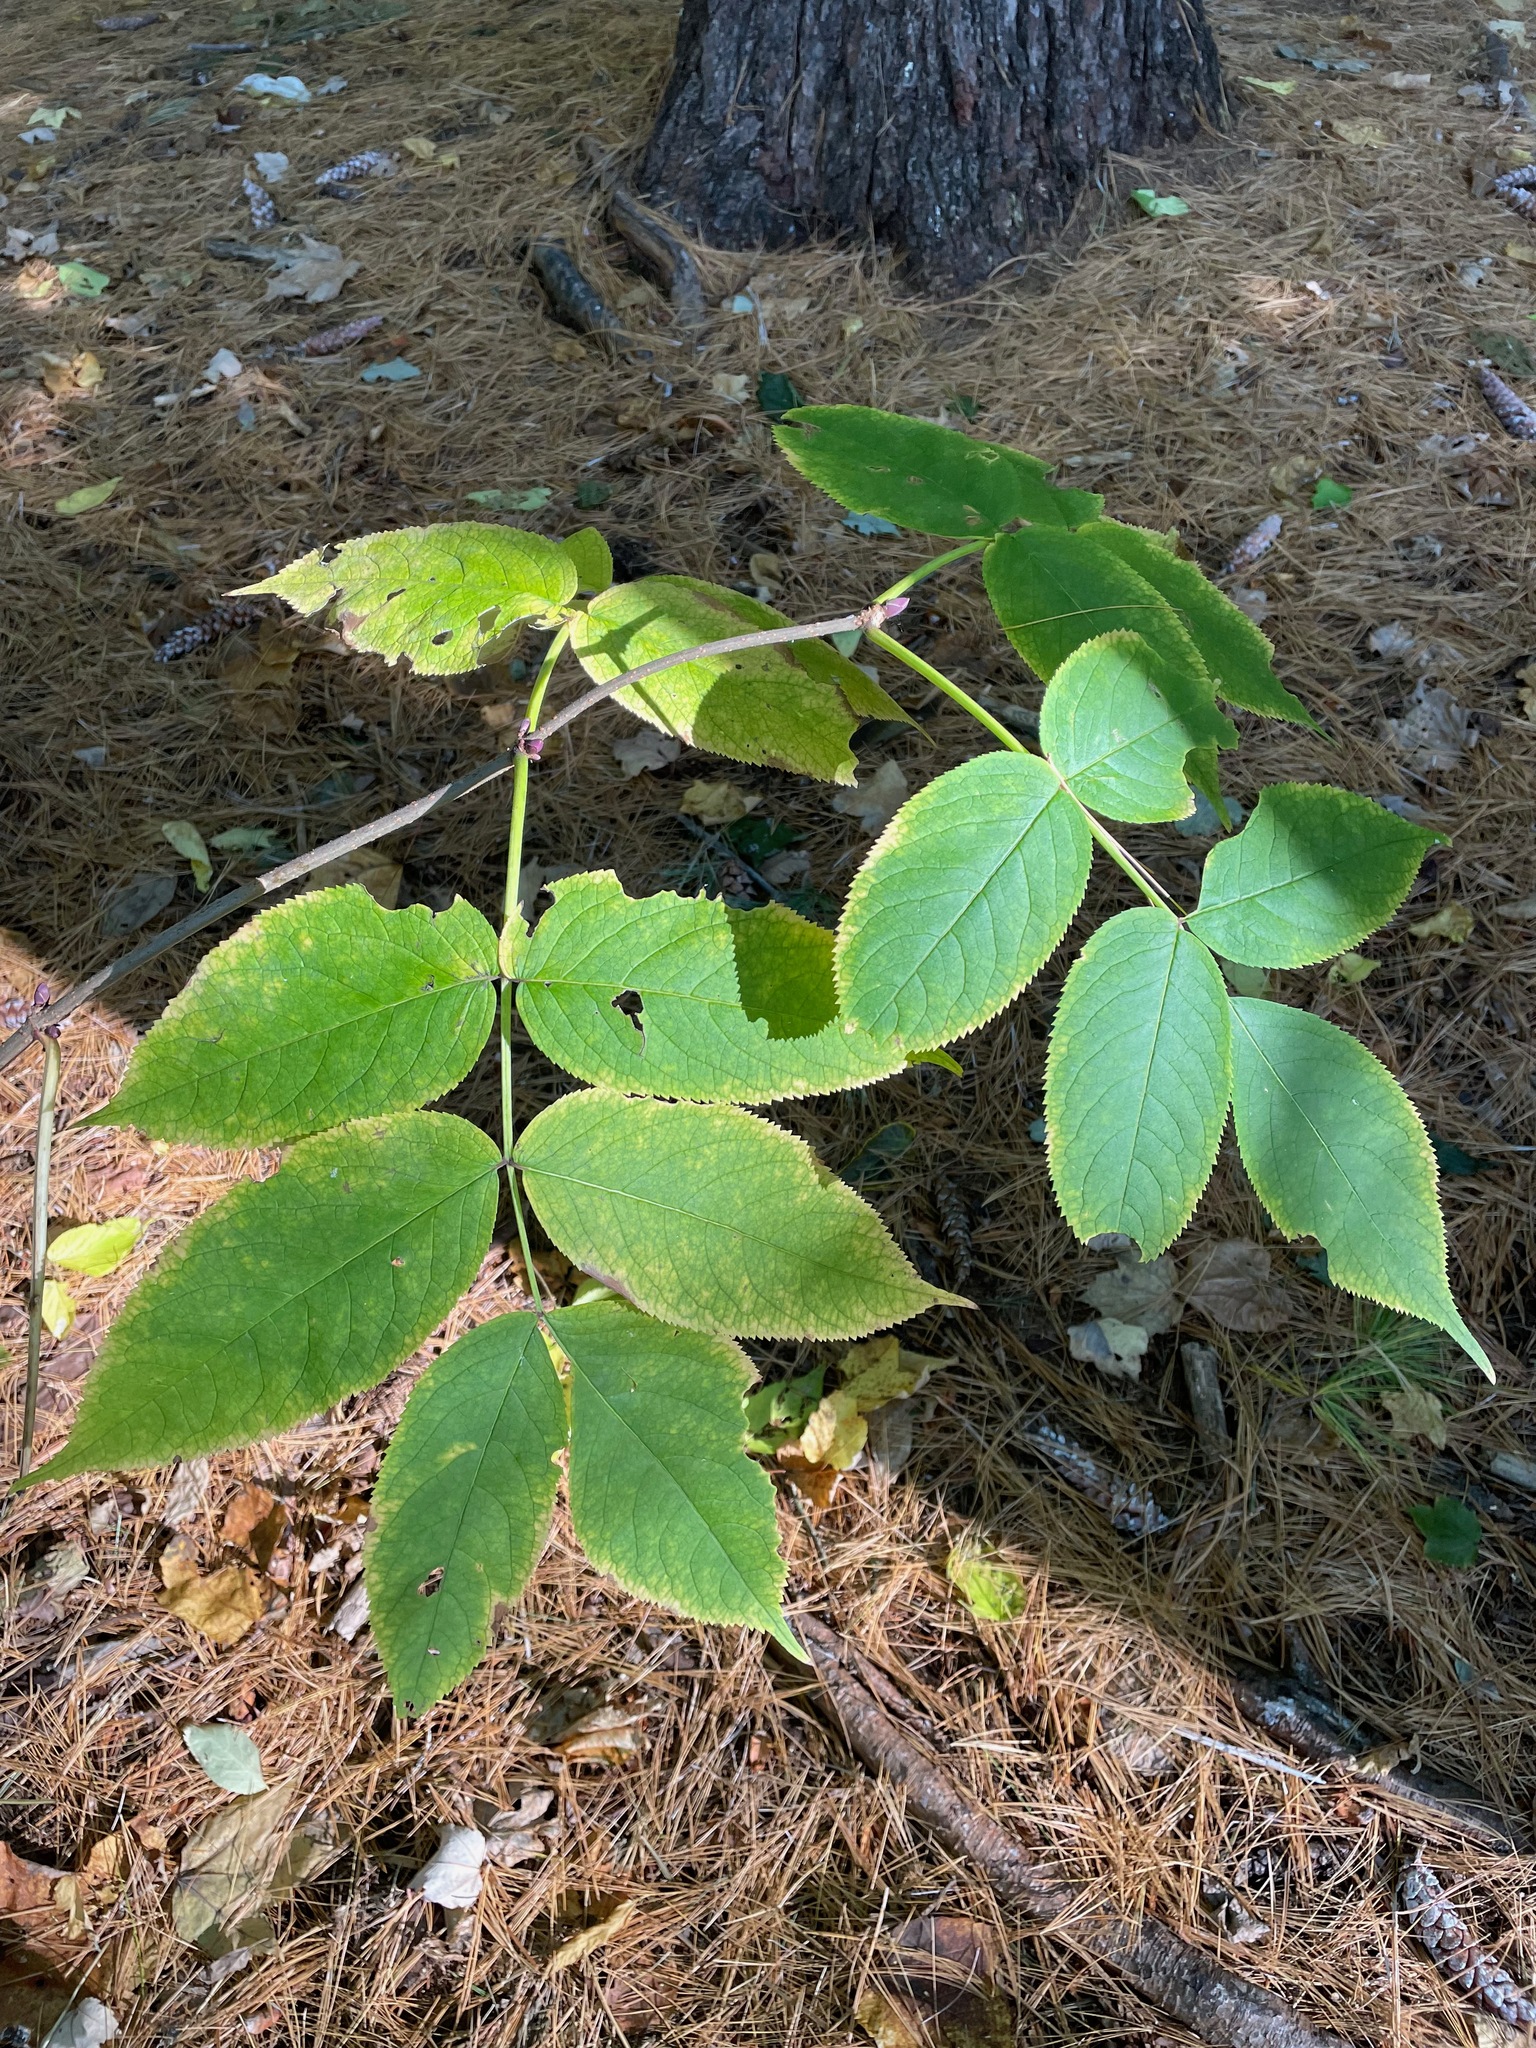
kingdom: Plantae
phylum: Tracheophyta
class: Magnoliopsida
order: Dipsacales
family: Viburnaceae
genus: Sambucus
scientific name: Sambucus racemosa
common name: Red-berried elder
